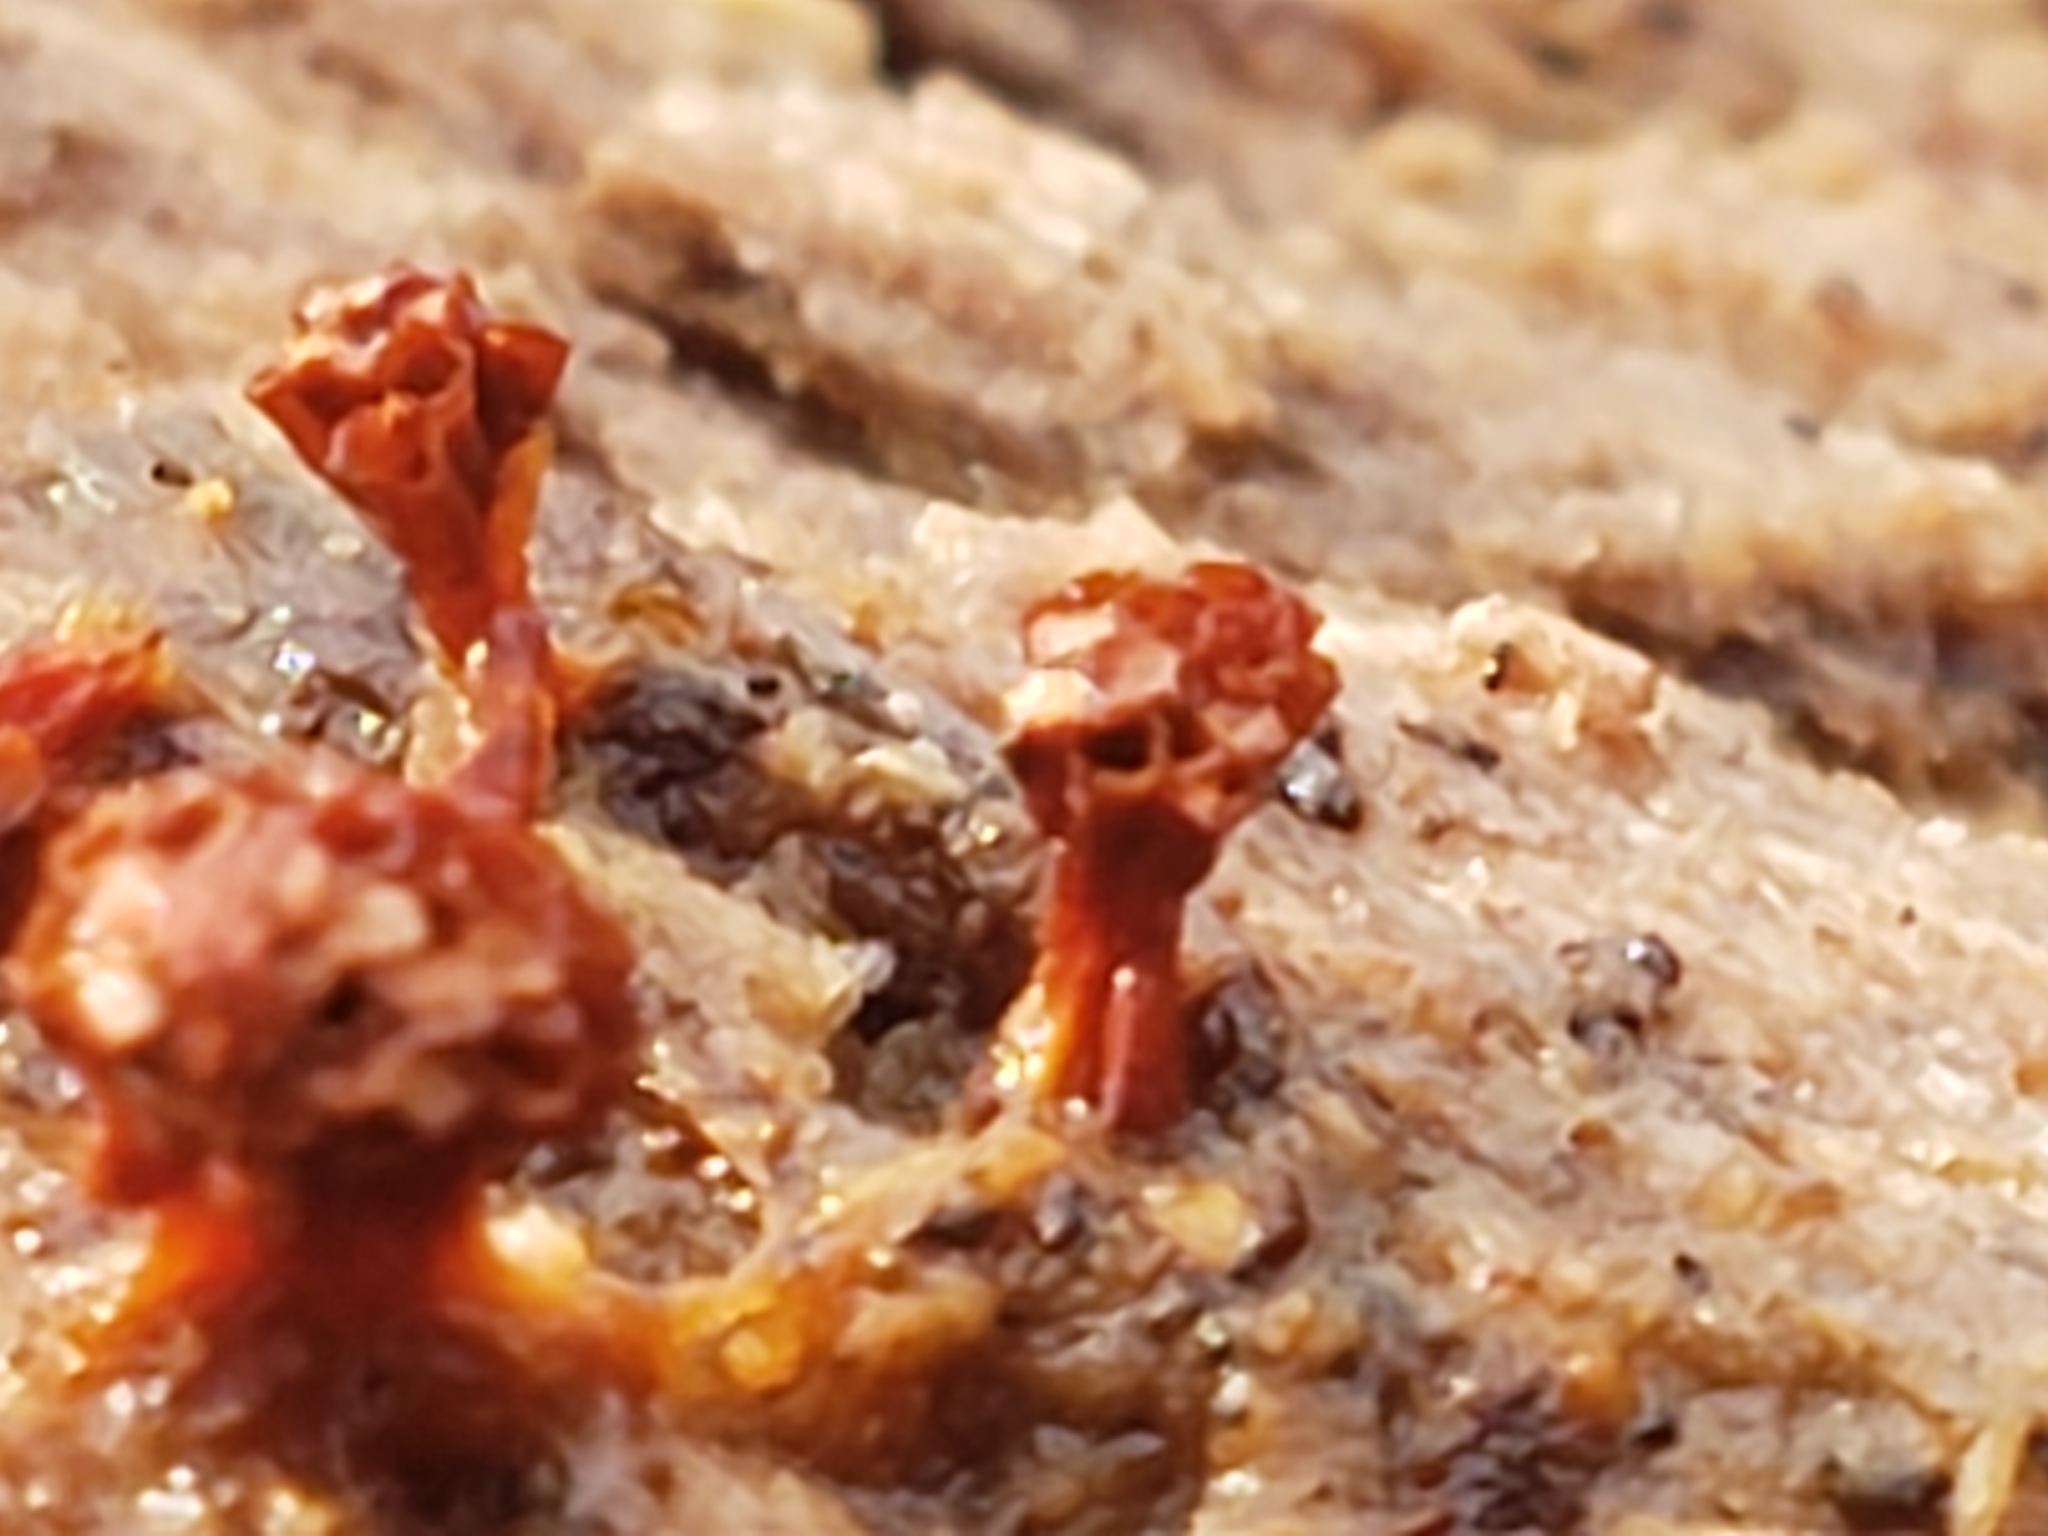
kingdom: Protozoa
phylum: Mycetozoa
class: Myxomycetes
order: Trichiales
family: Trichiaceae
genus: Metatrichia
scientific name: Metatrichia vesparia
